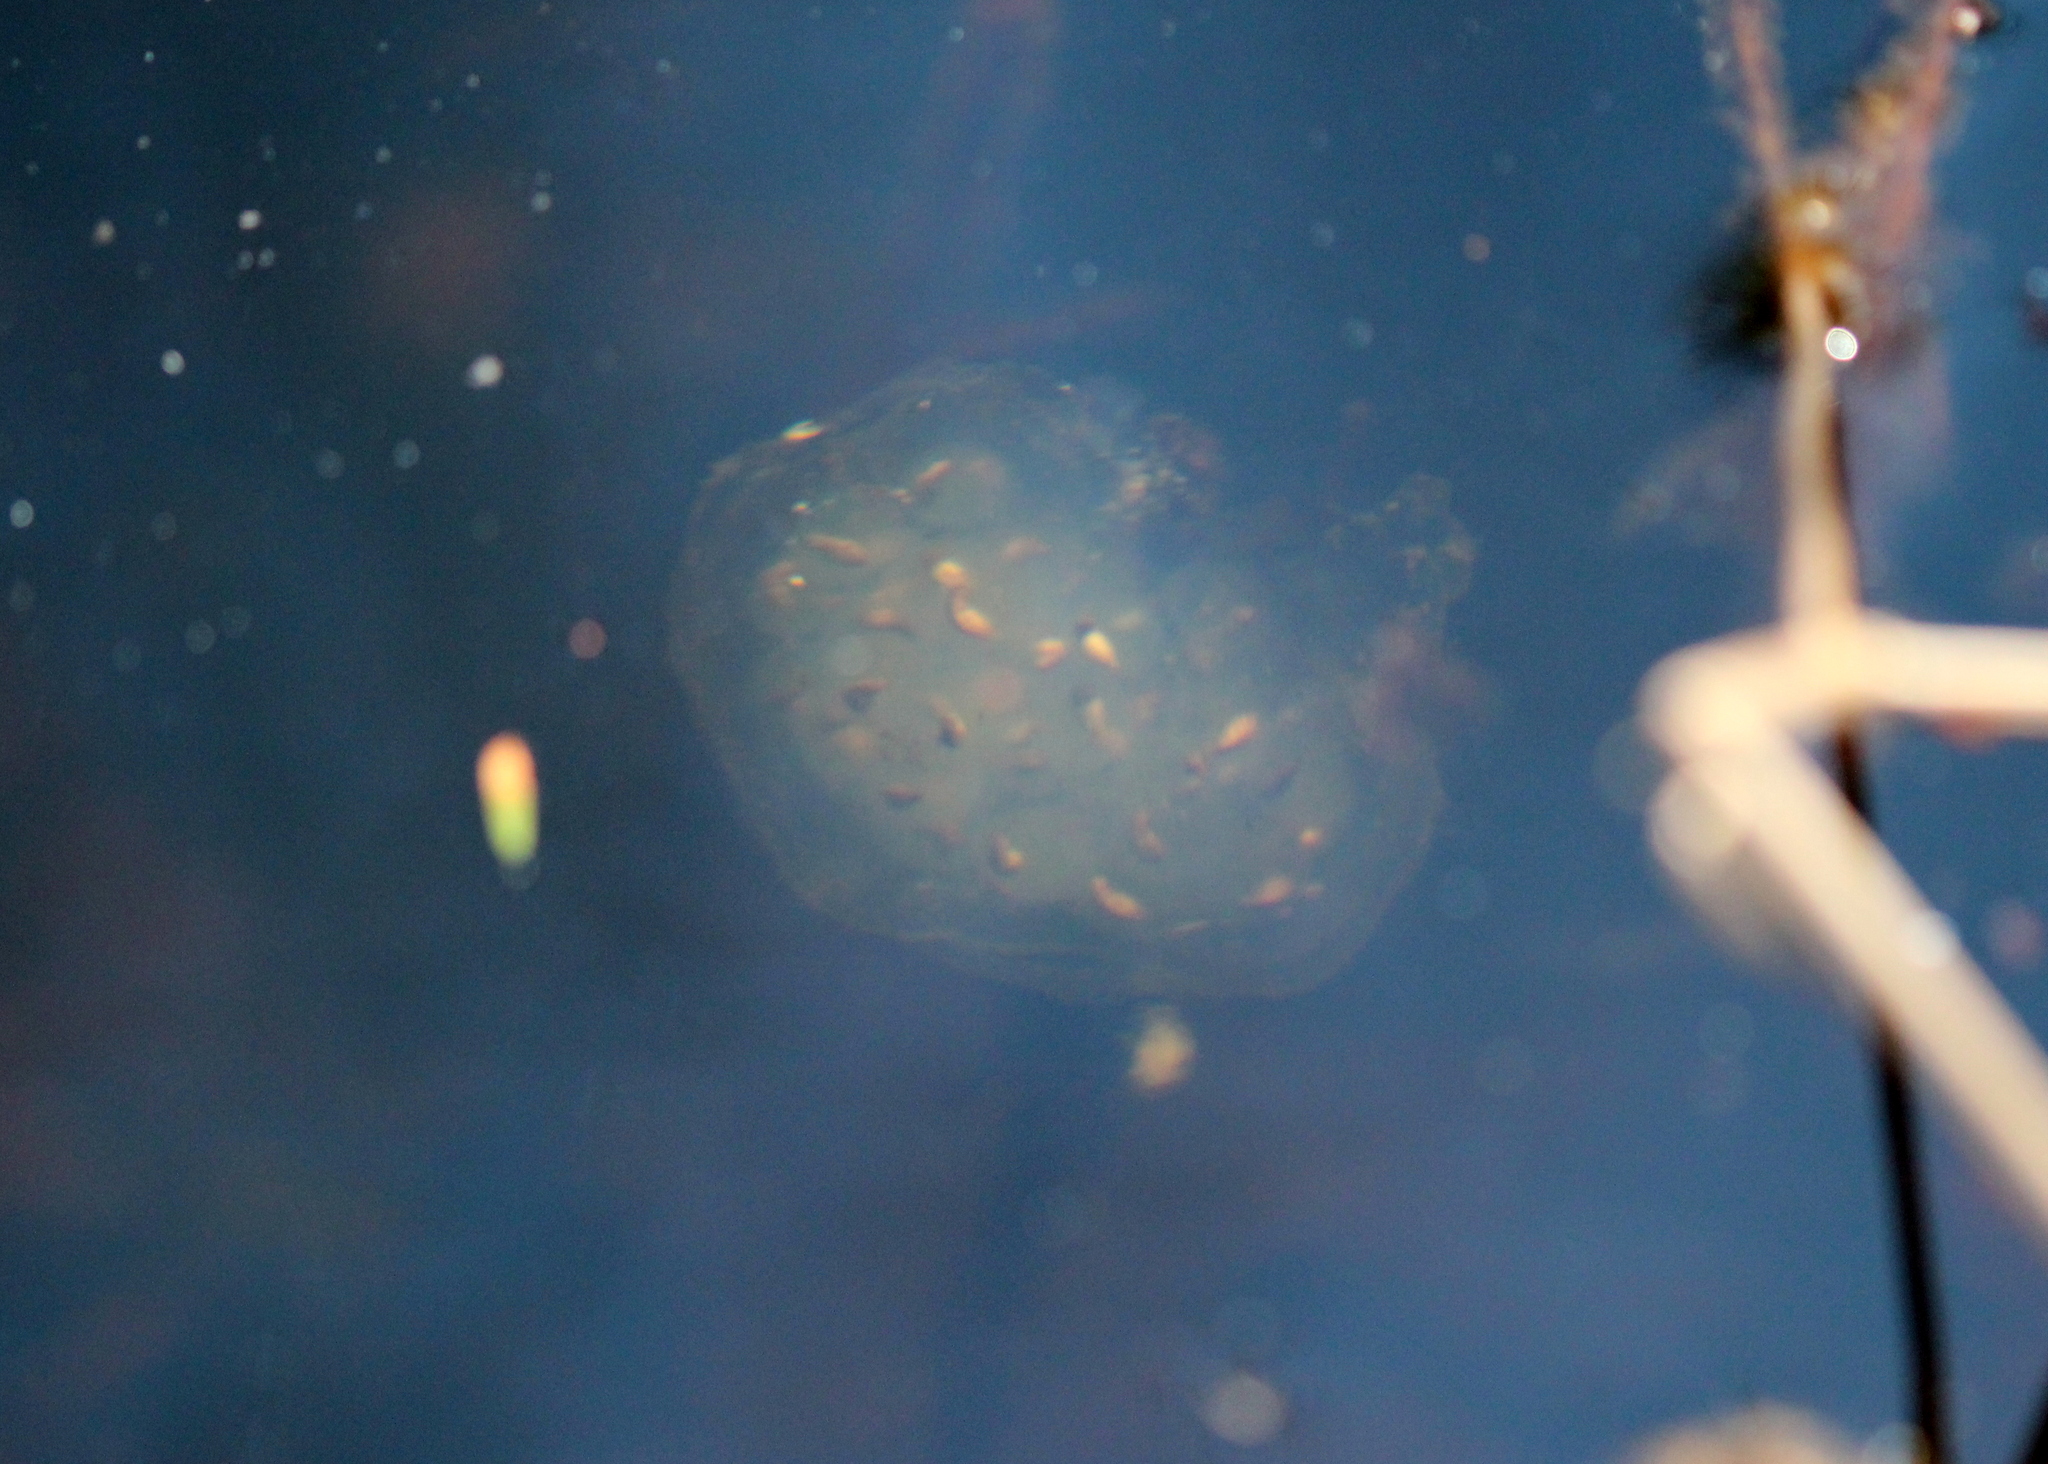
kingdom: Animalia
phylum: Chordata
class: Amphibia
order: Caudata
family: Ambystomatidae
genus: Ambystoma
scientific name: Ambystoma maculatum
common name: Spotted salamander
